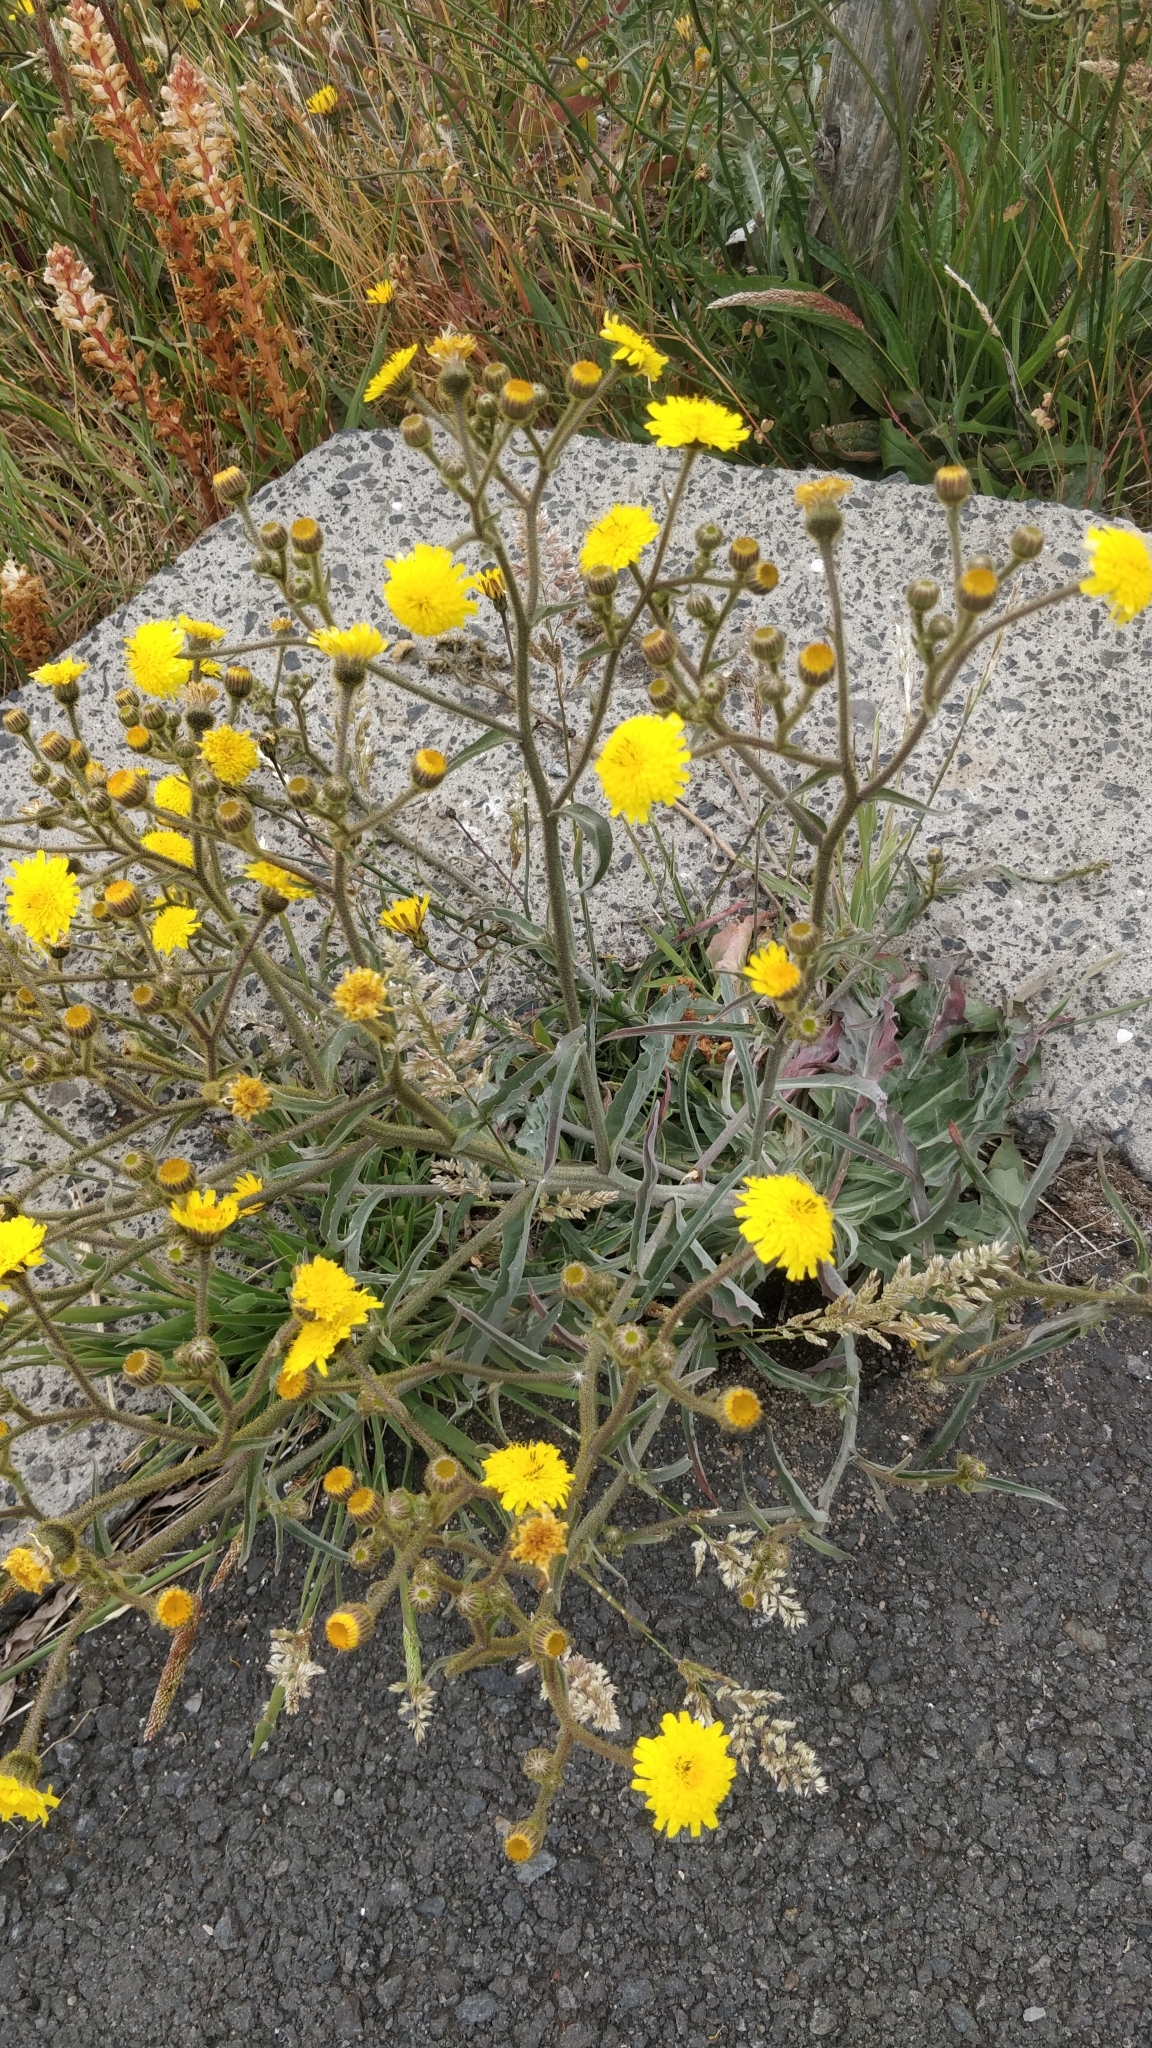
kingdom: Plantae
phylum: Tracheophyta
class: Magnoliopsida
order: Asterales
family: Asteraceae
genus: Andryala
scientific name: Andryala glandulosa
